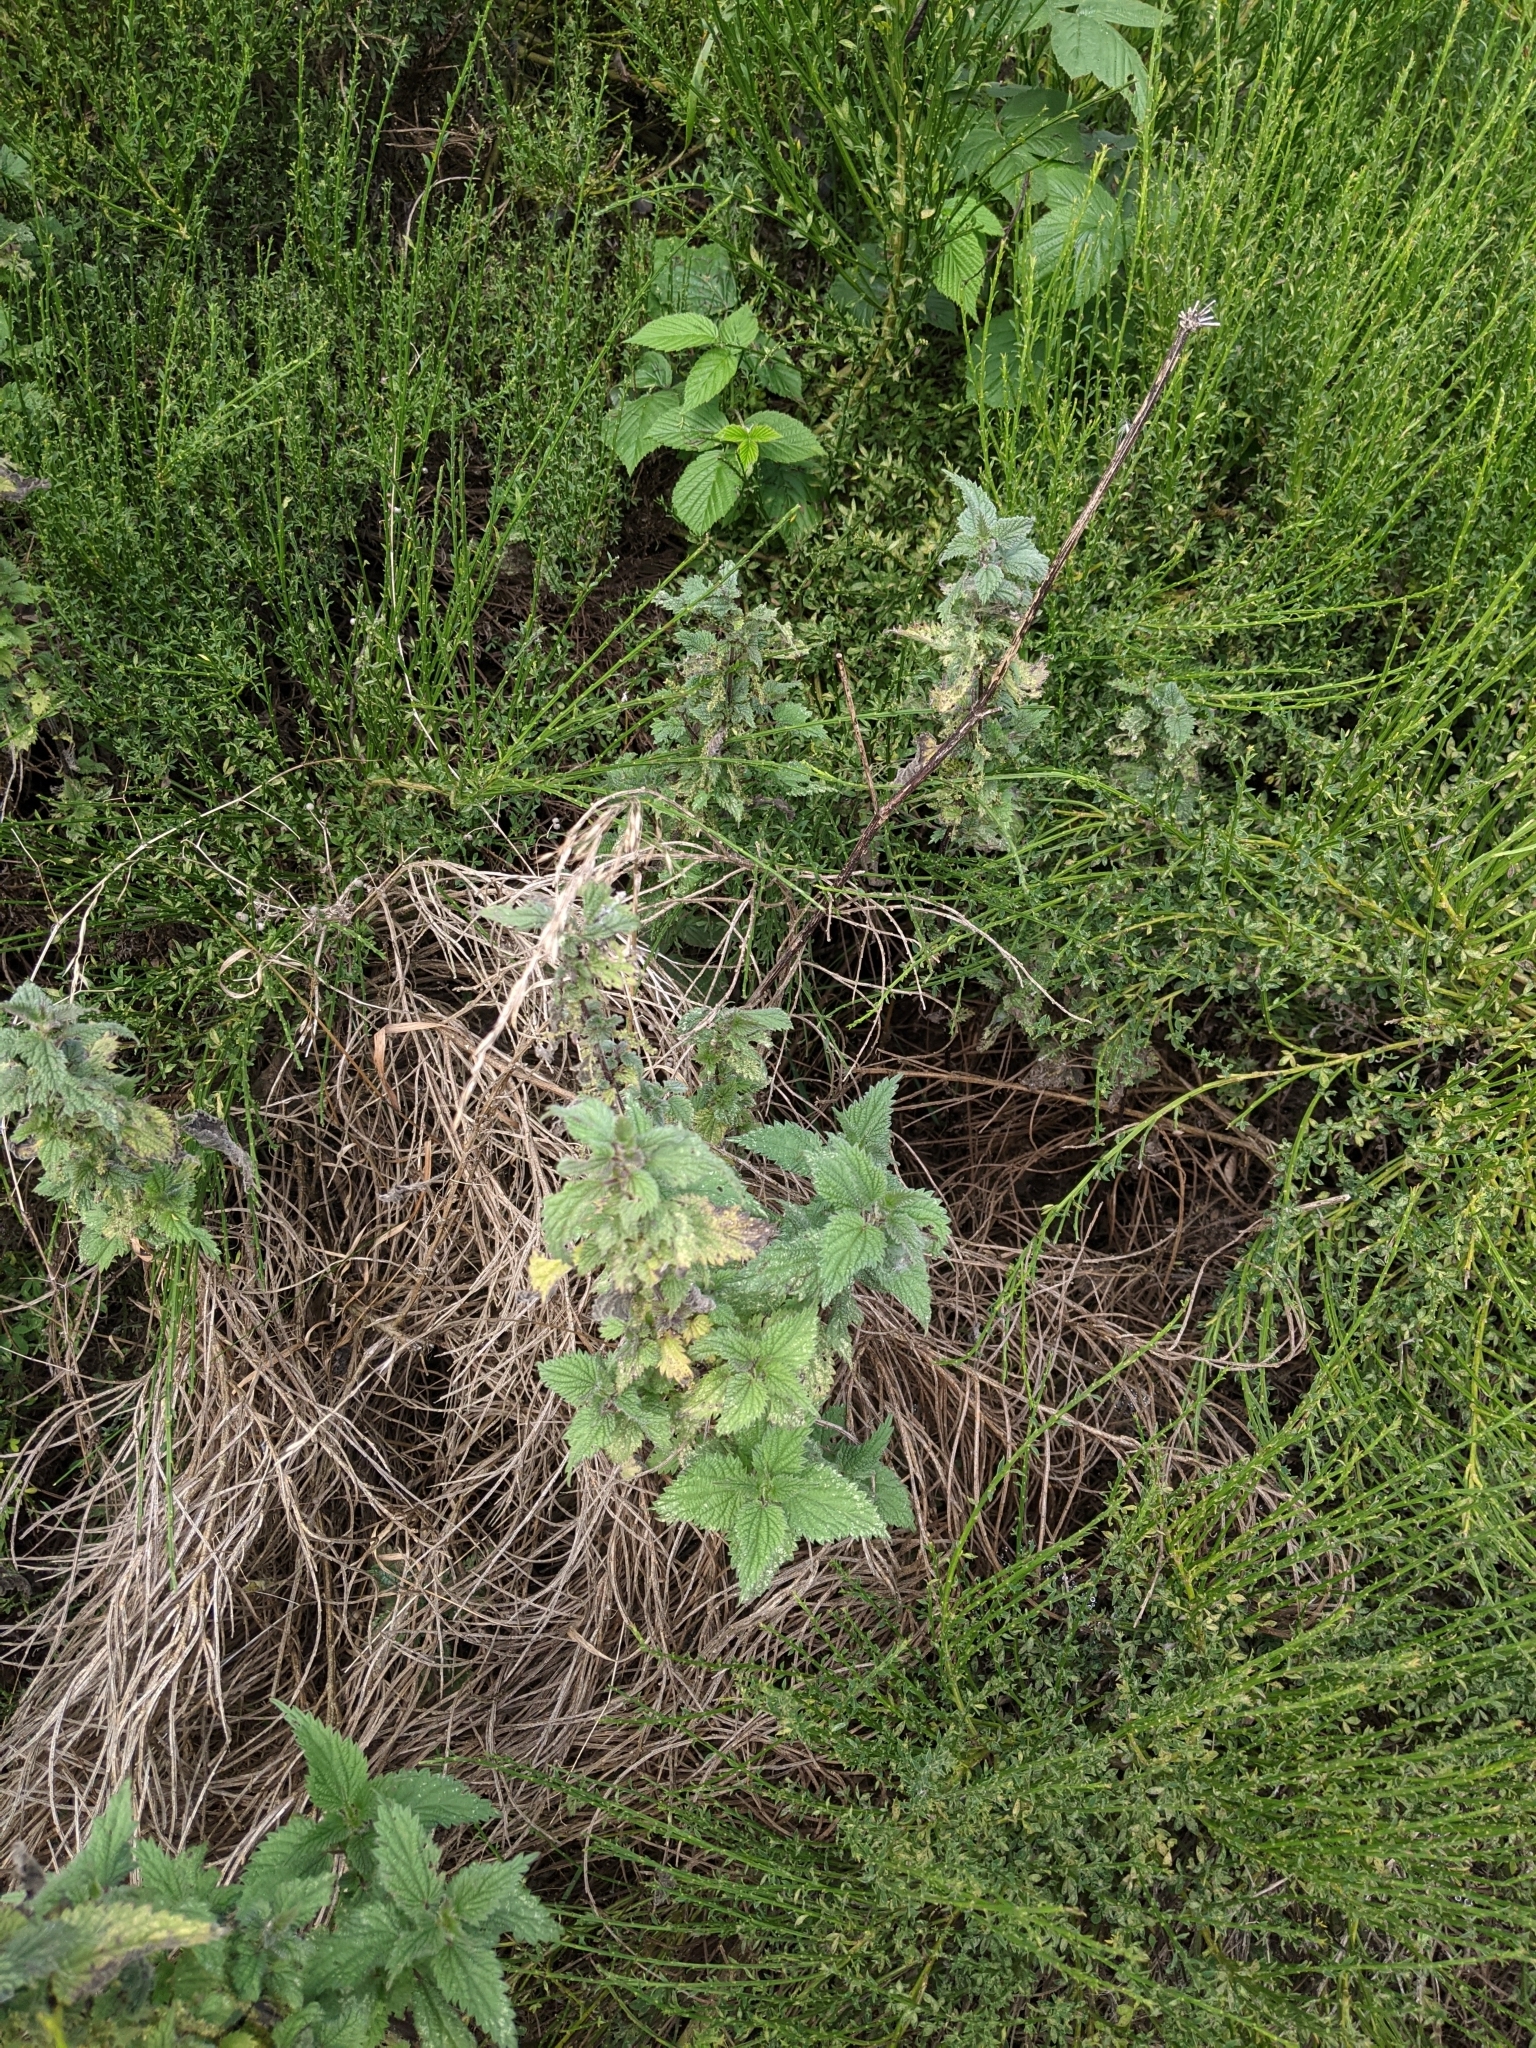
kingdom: Plantae
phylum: Tracheophyta
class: Magnoliopsida
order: Rosales
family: Urticaceae
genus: Urtica
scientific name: Urtica dioica
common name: Common nettle
